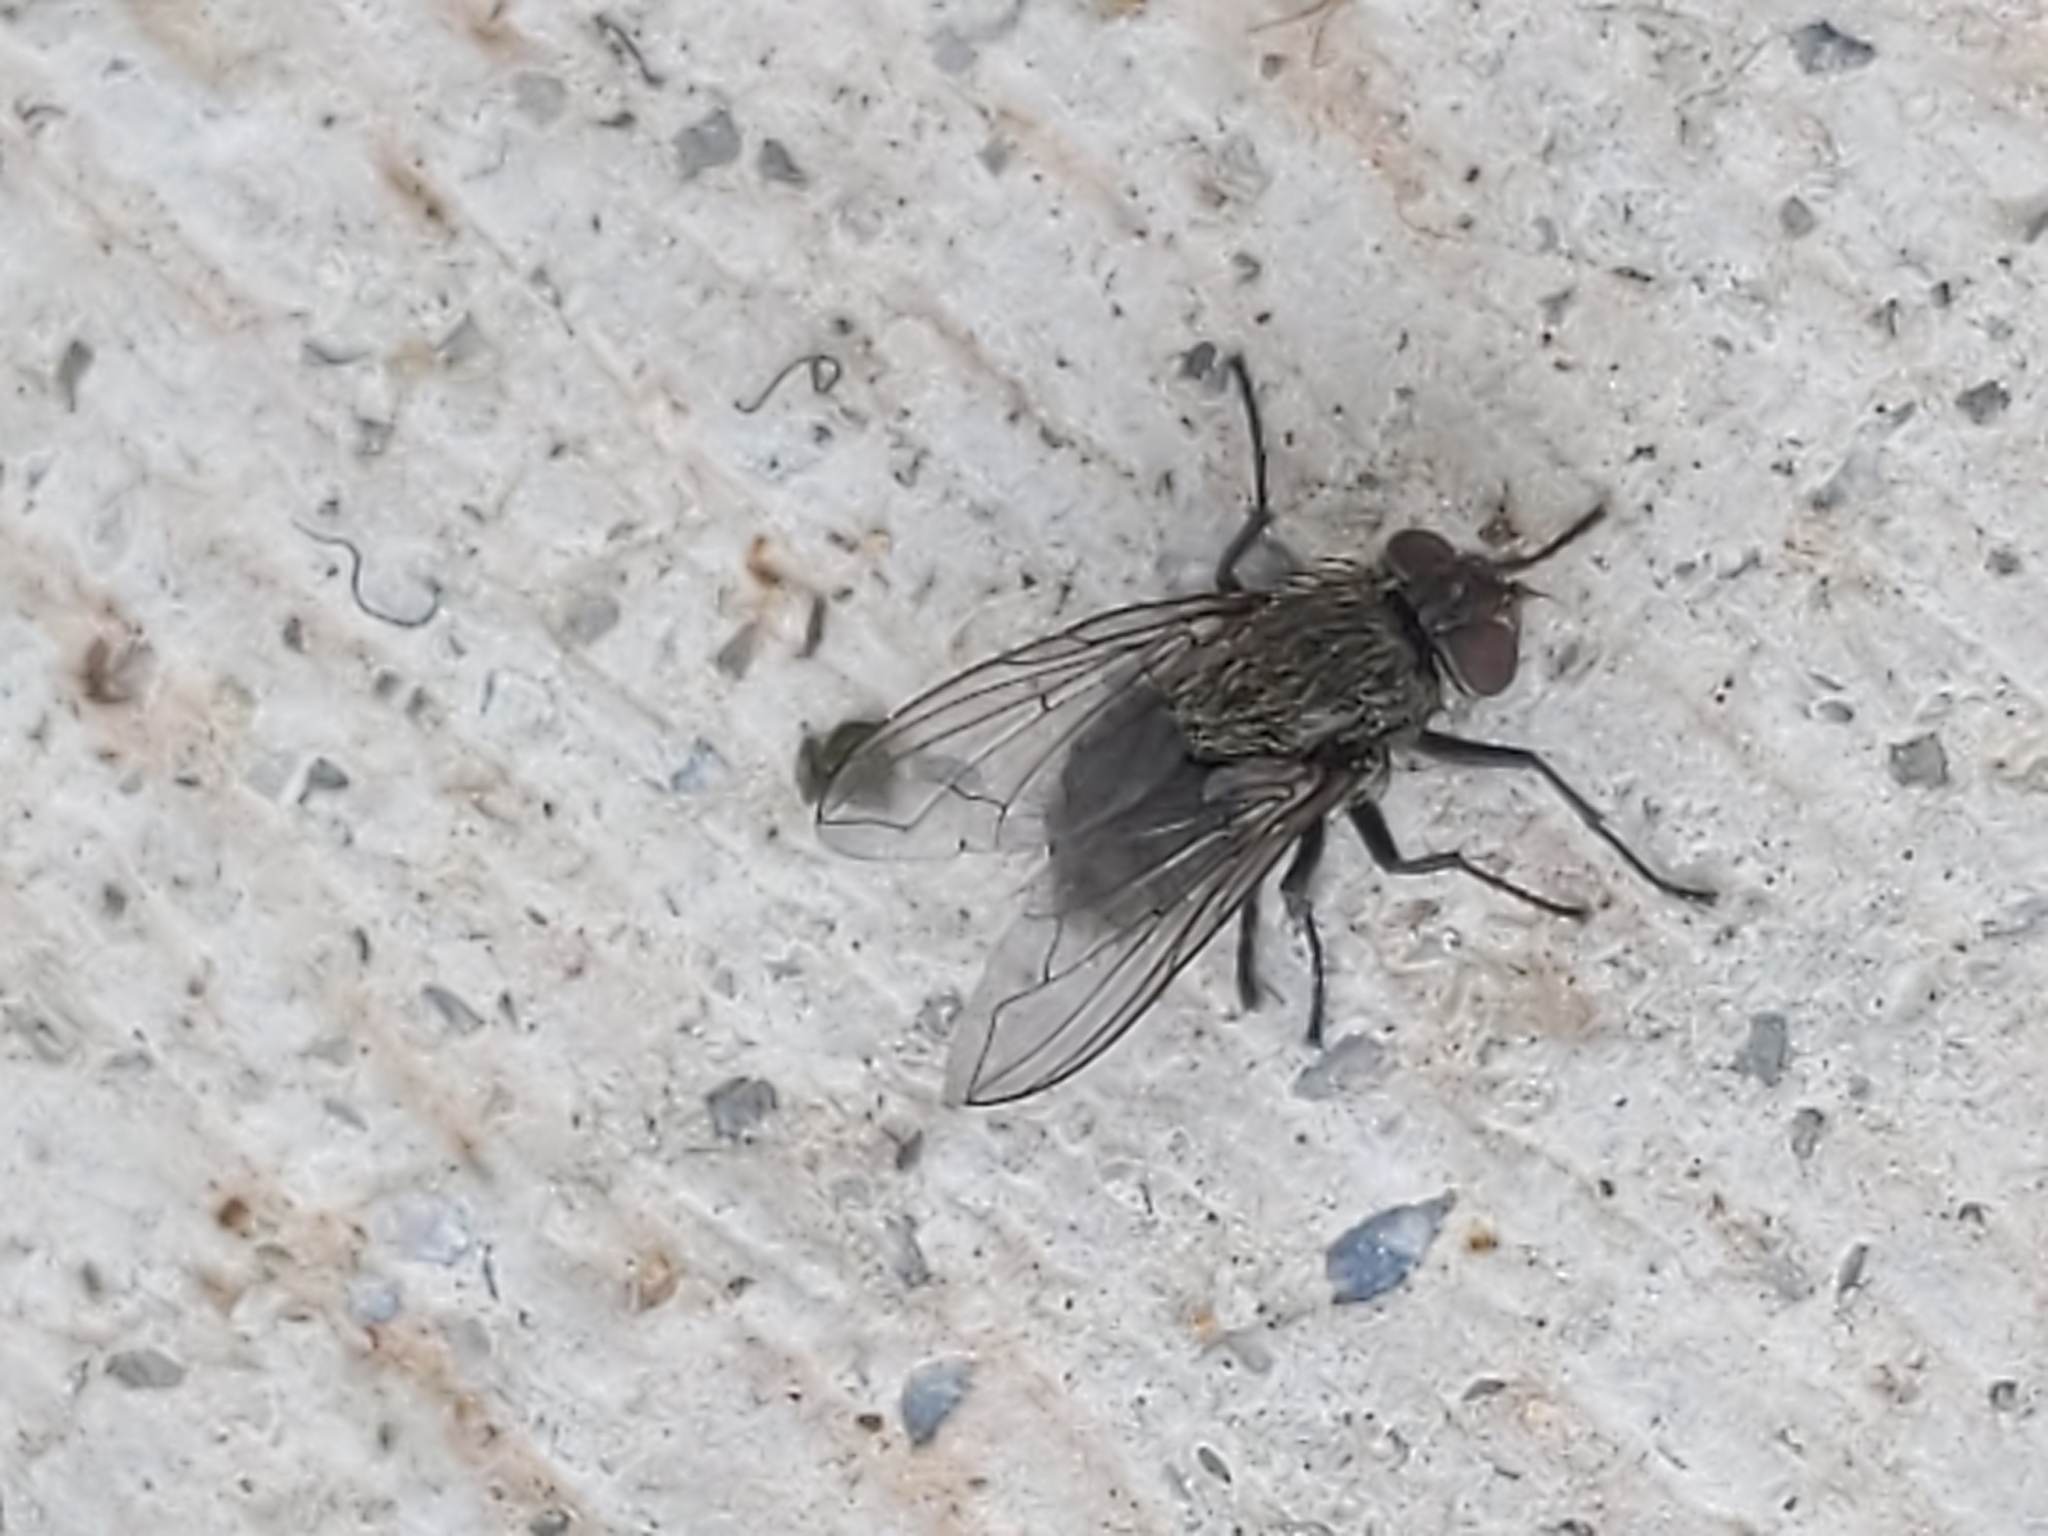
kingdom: Animalia
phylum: Arthropoda
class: Insecta
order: Diptera
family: Polleniidae
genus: Pollenia
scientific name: Pollenia
